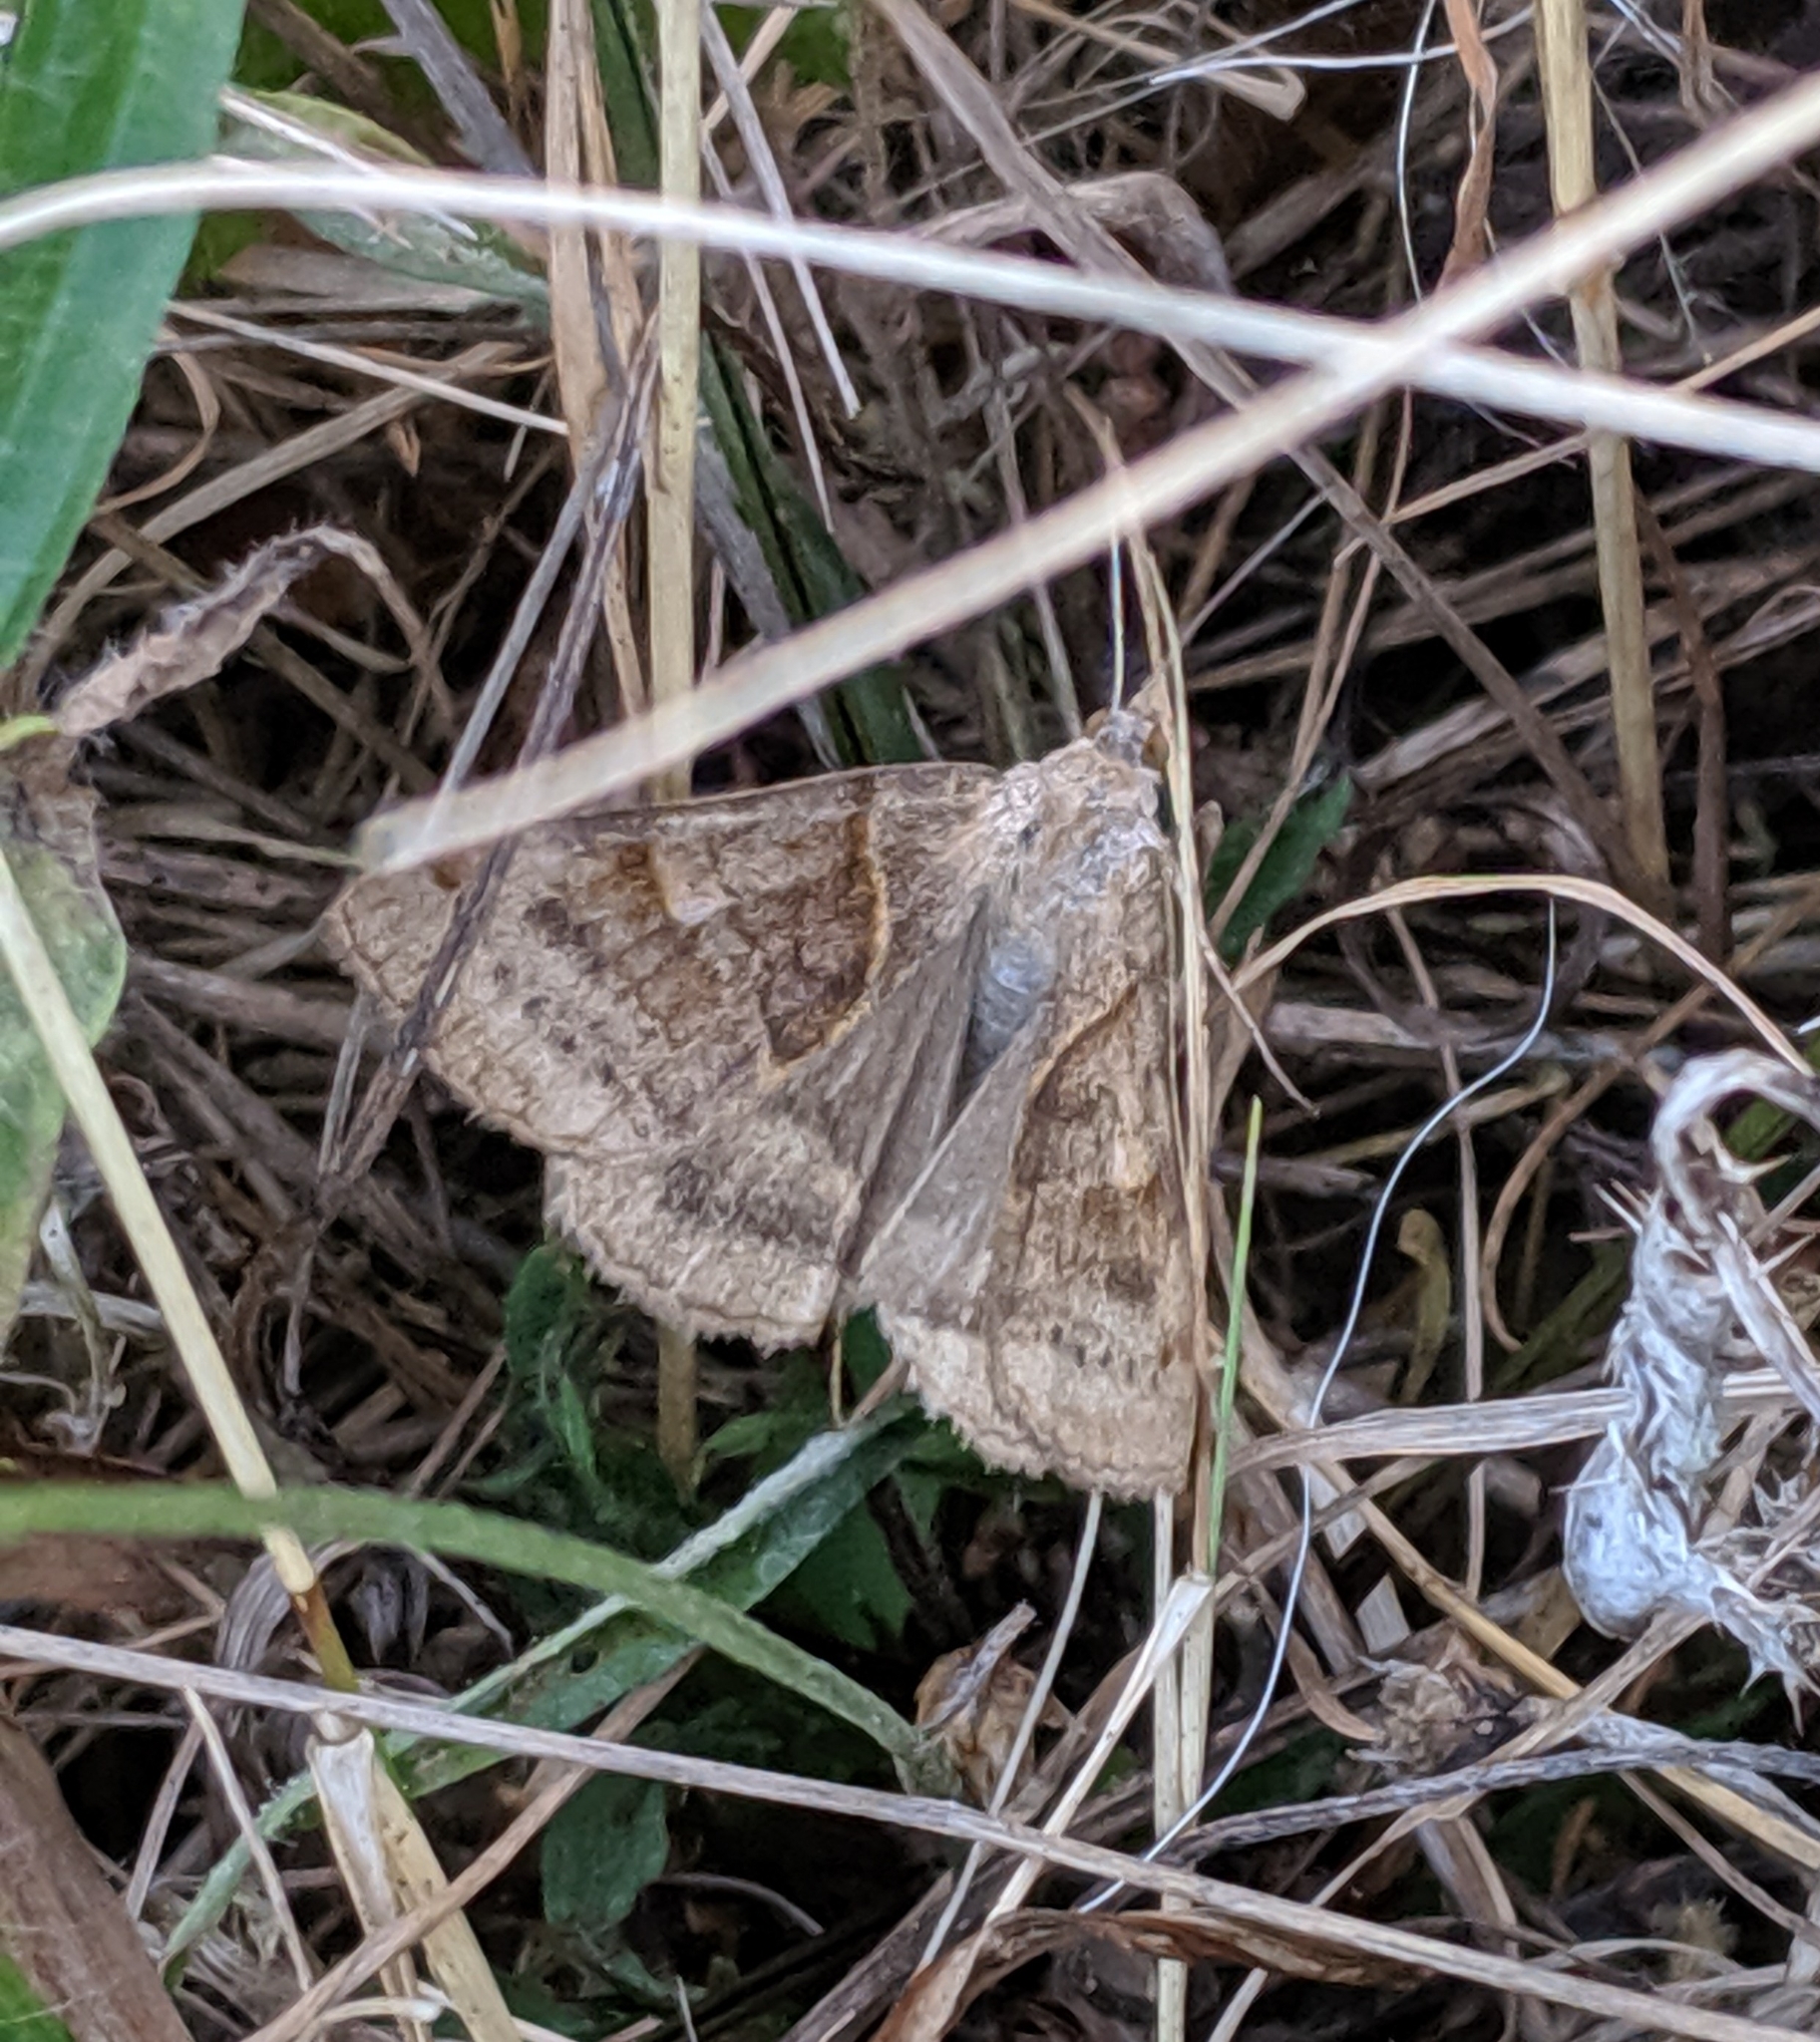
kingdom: Animalia
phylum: Arthropoda
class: Insecta
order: Lepidoptera
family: Erebidae
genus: Caenurgina
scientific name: Caenurgina erechtea
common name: Forage looper moth
